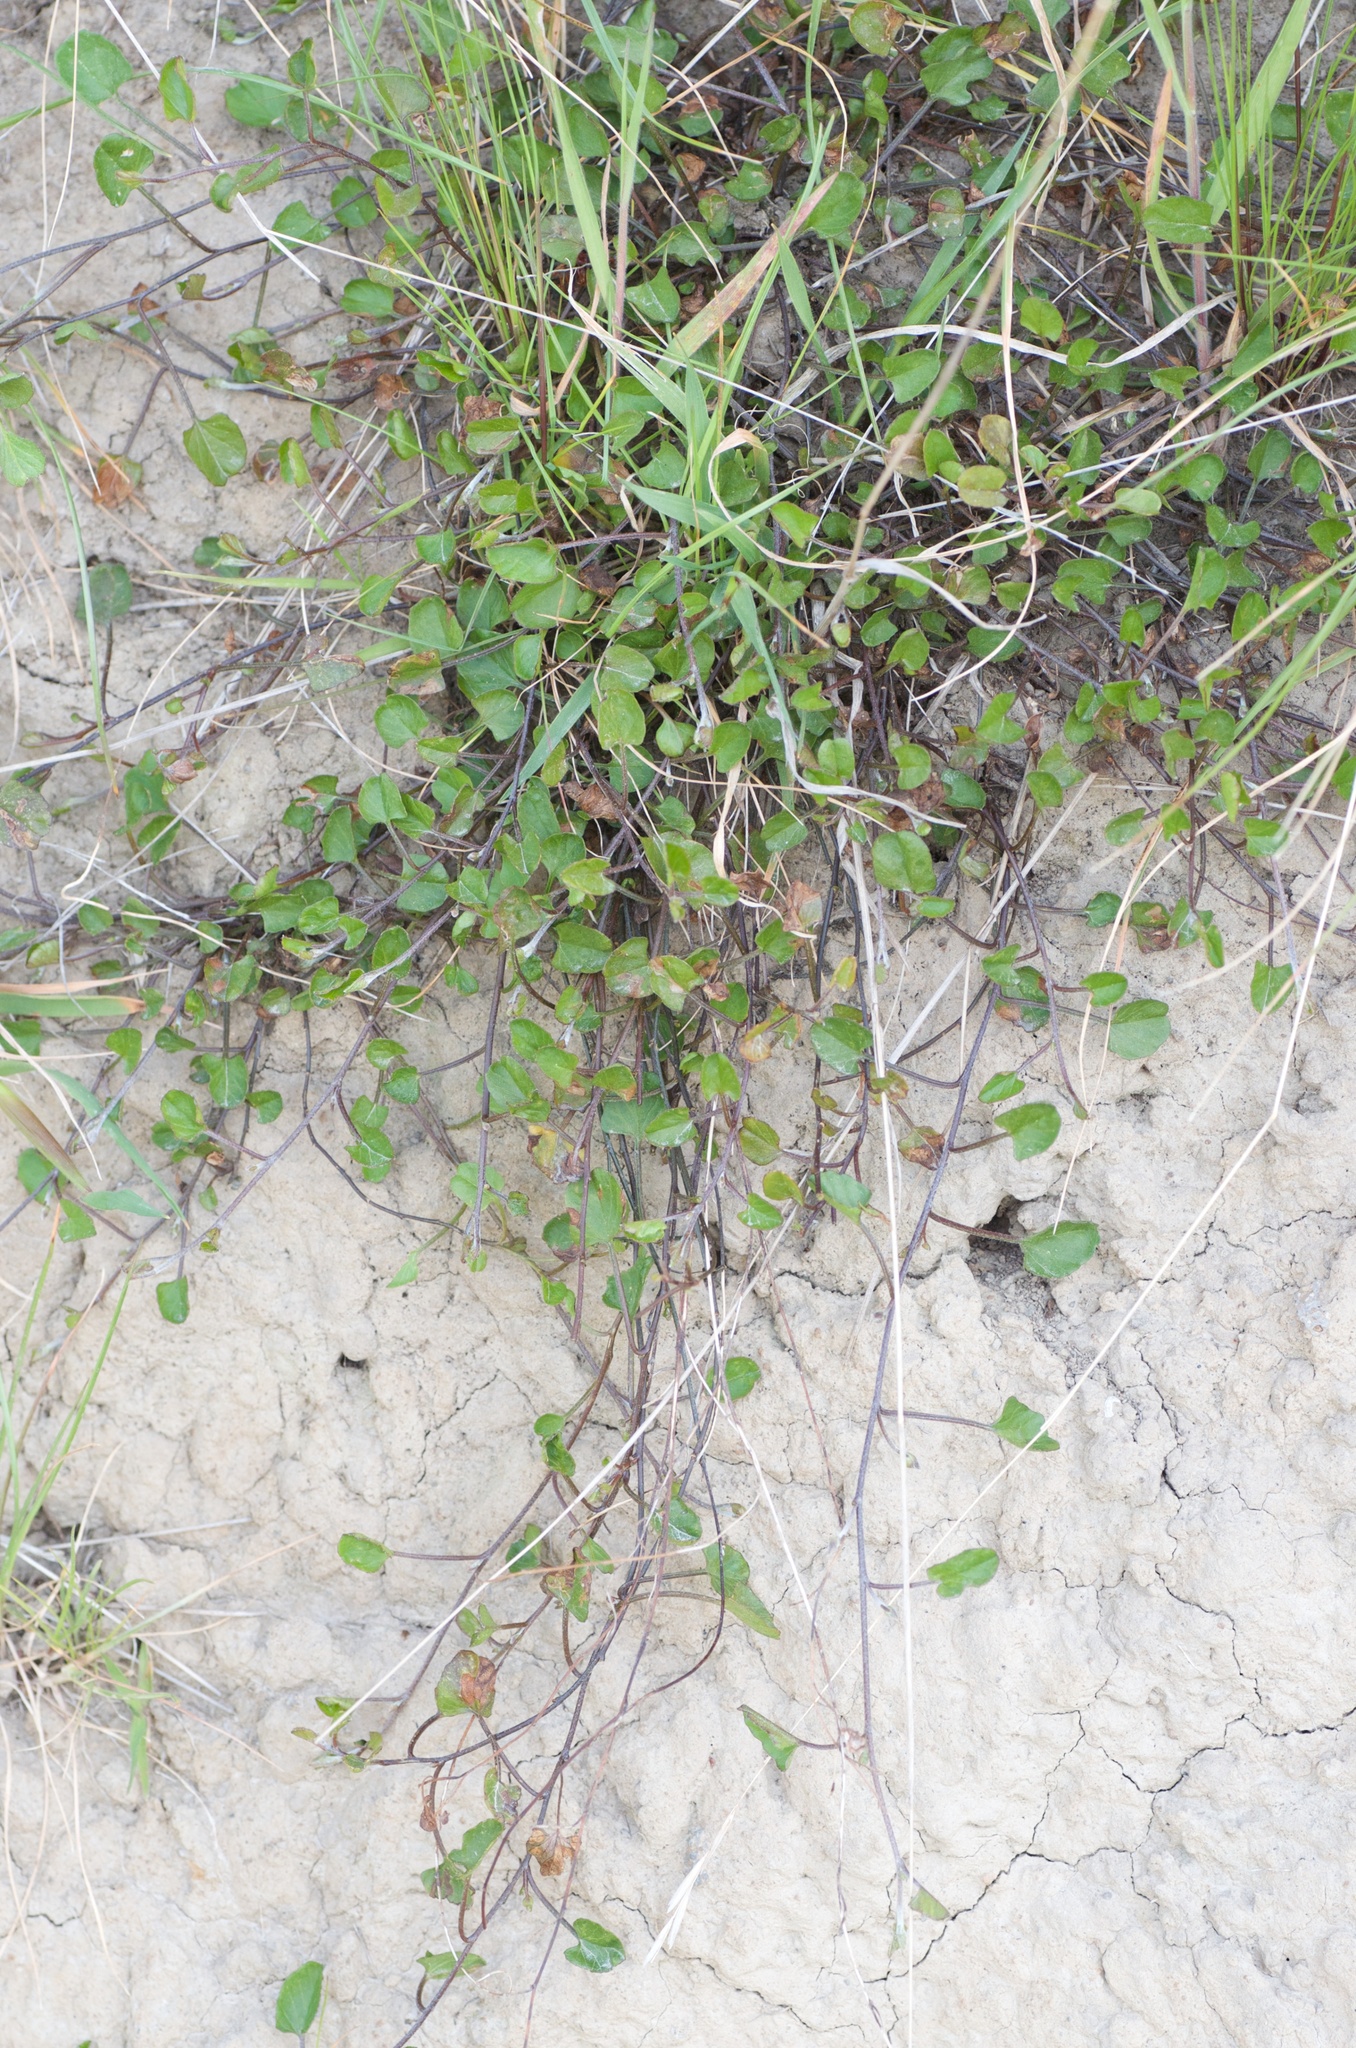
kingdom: Plantae
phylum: Tracheophyta
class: Magnoliopsida
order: Solanales
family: Convolvulaceae
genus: Convolvulus
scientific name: Convolvulus waitaha
